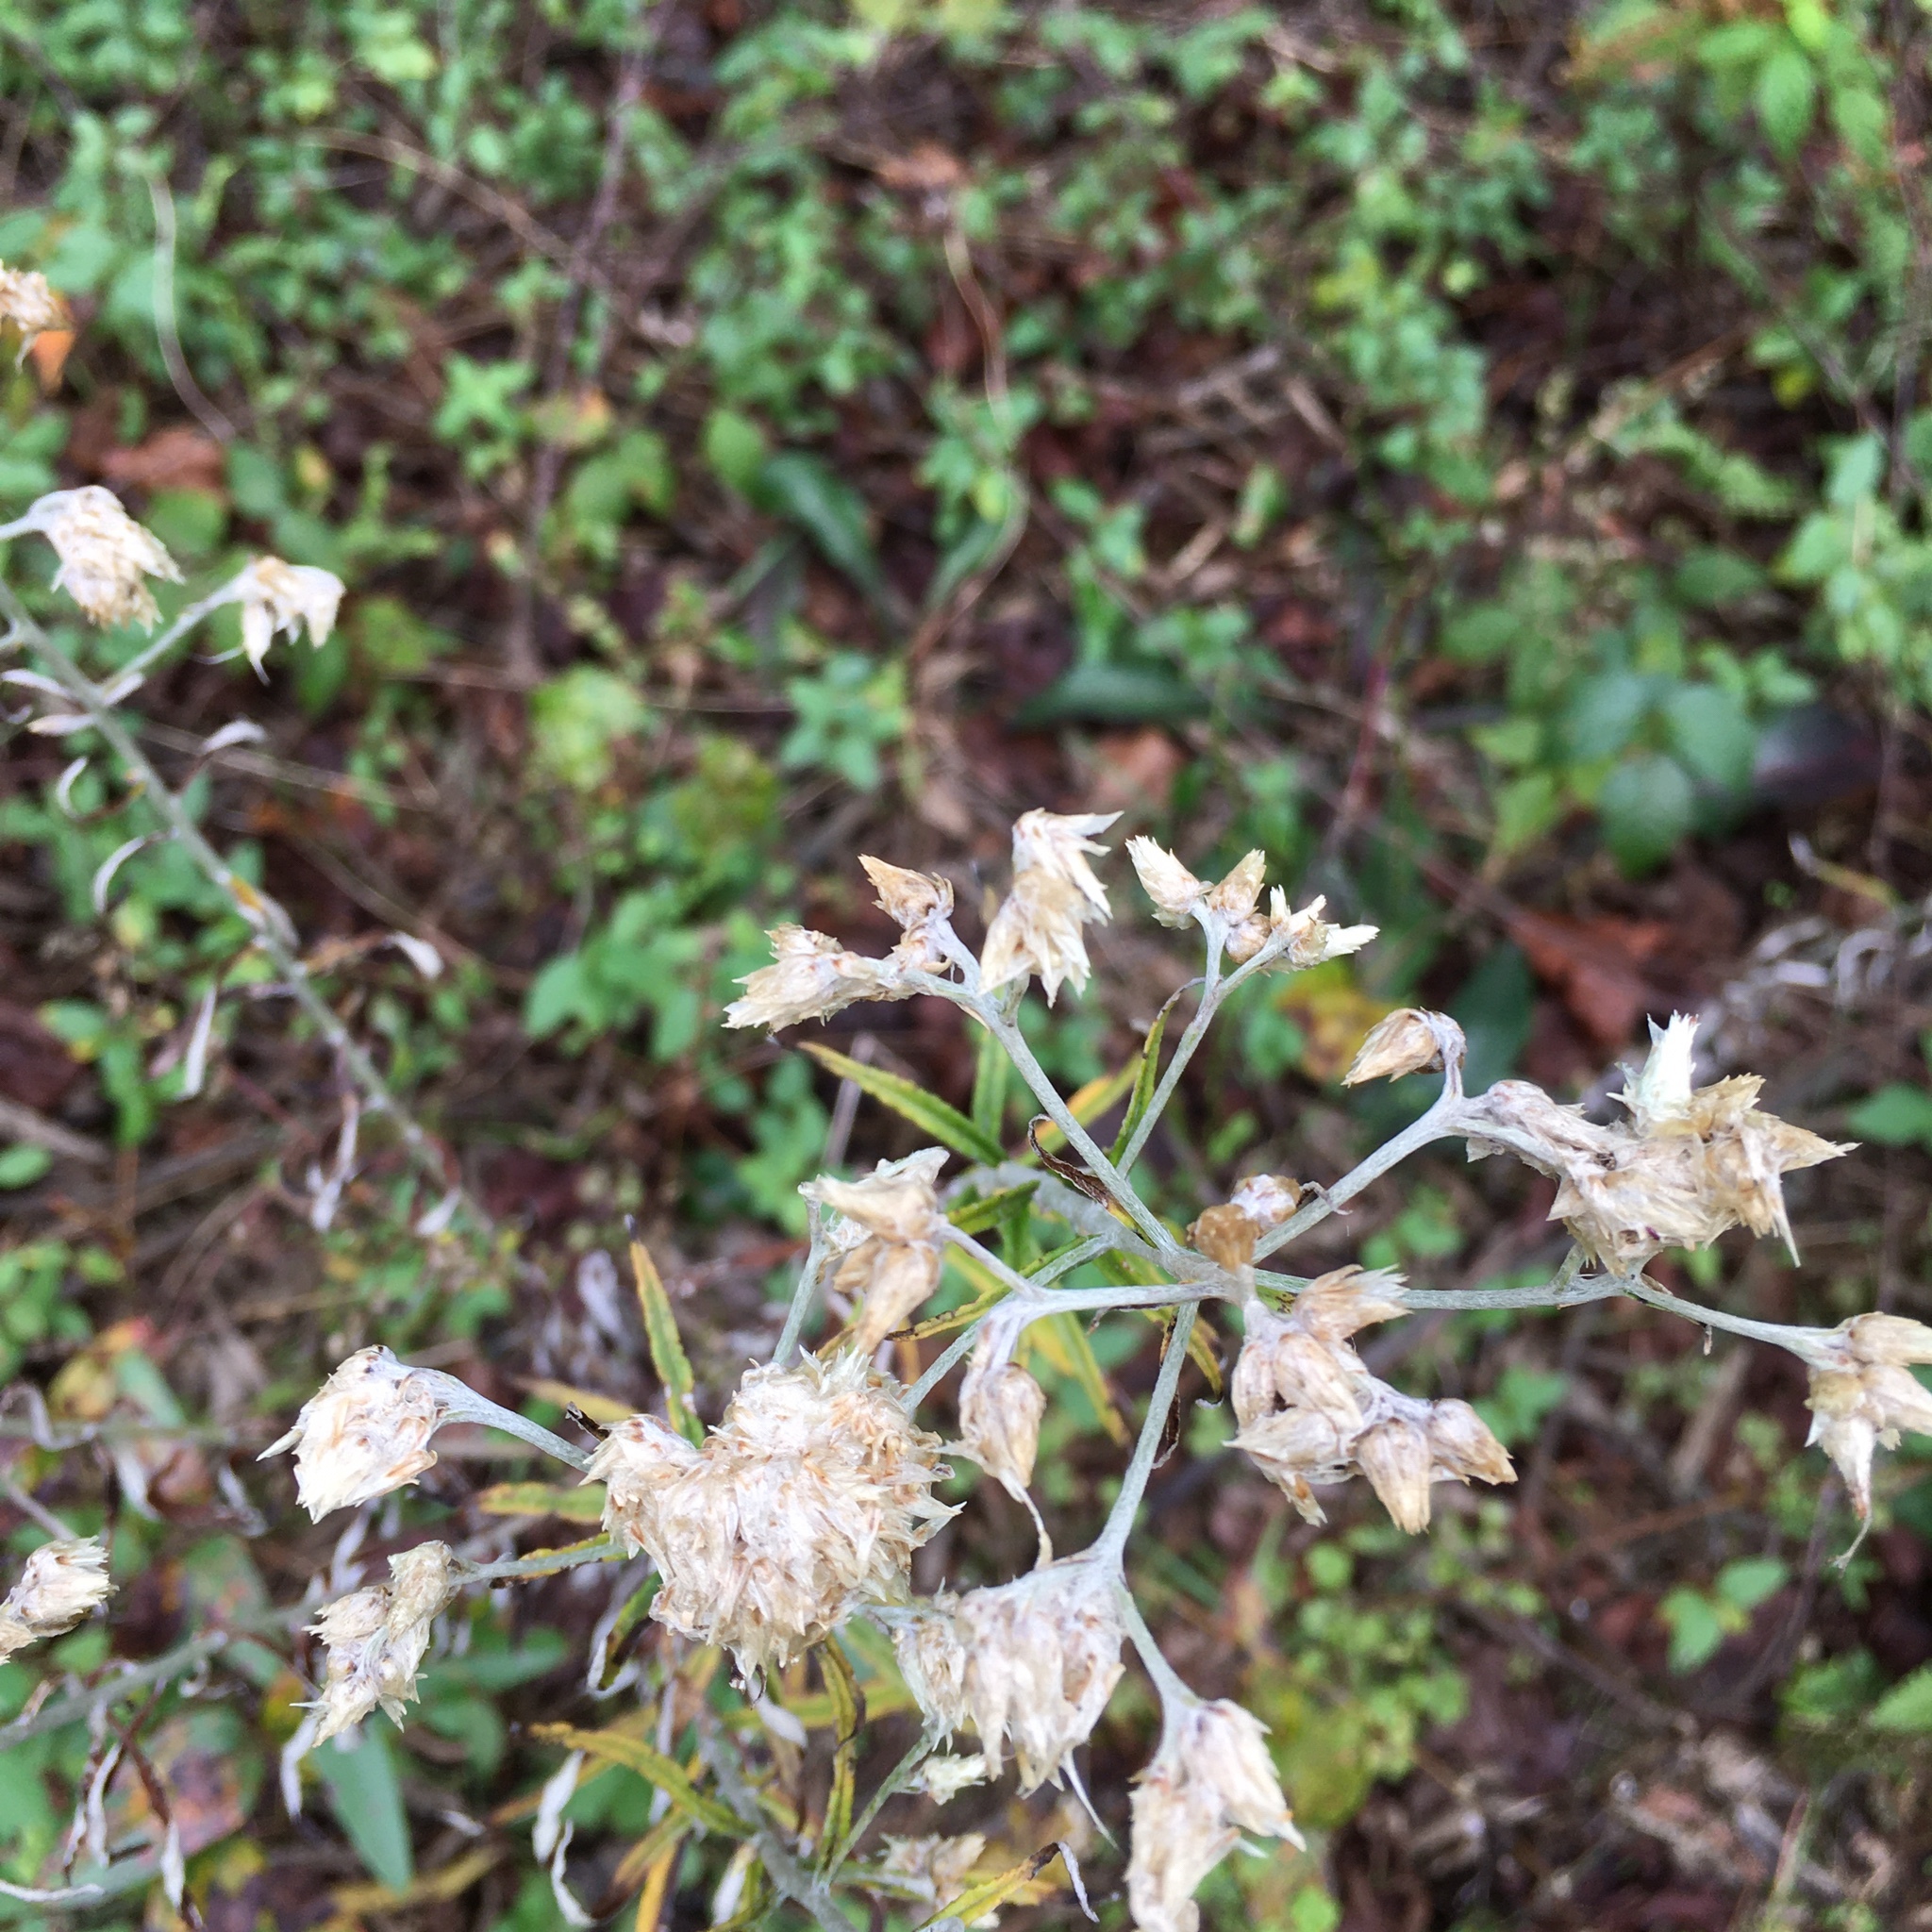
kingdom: Plantae
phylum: Tracheophyta
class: Magnoliopsida
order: Asterales
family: Asteraceae
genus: Pseudognaphalium
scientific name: Pseudognaphalium obtusifolium
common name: Eastern rabbit-tobacco
